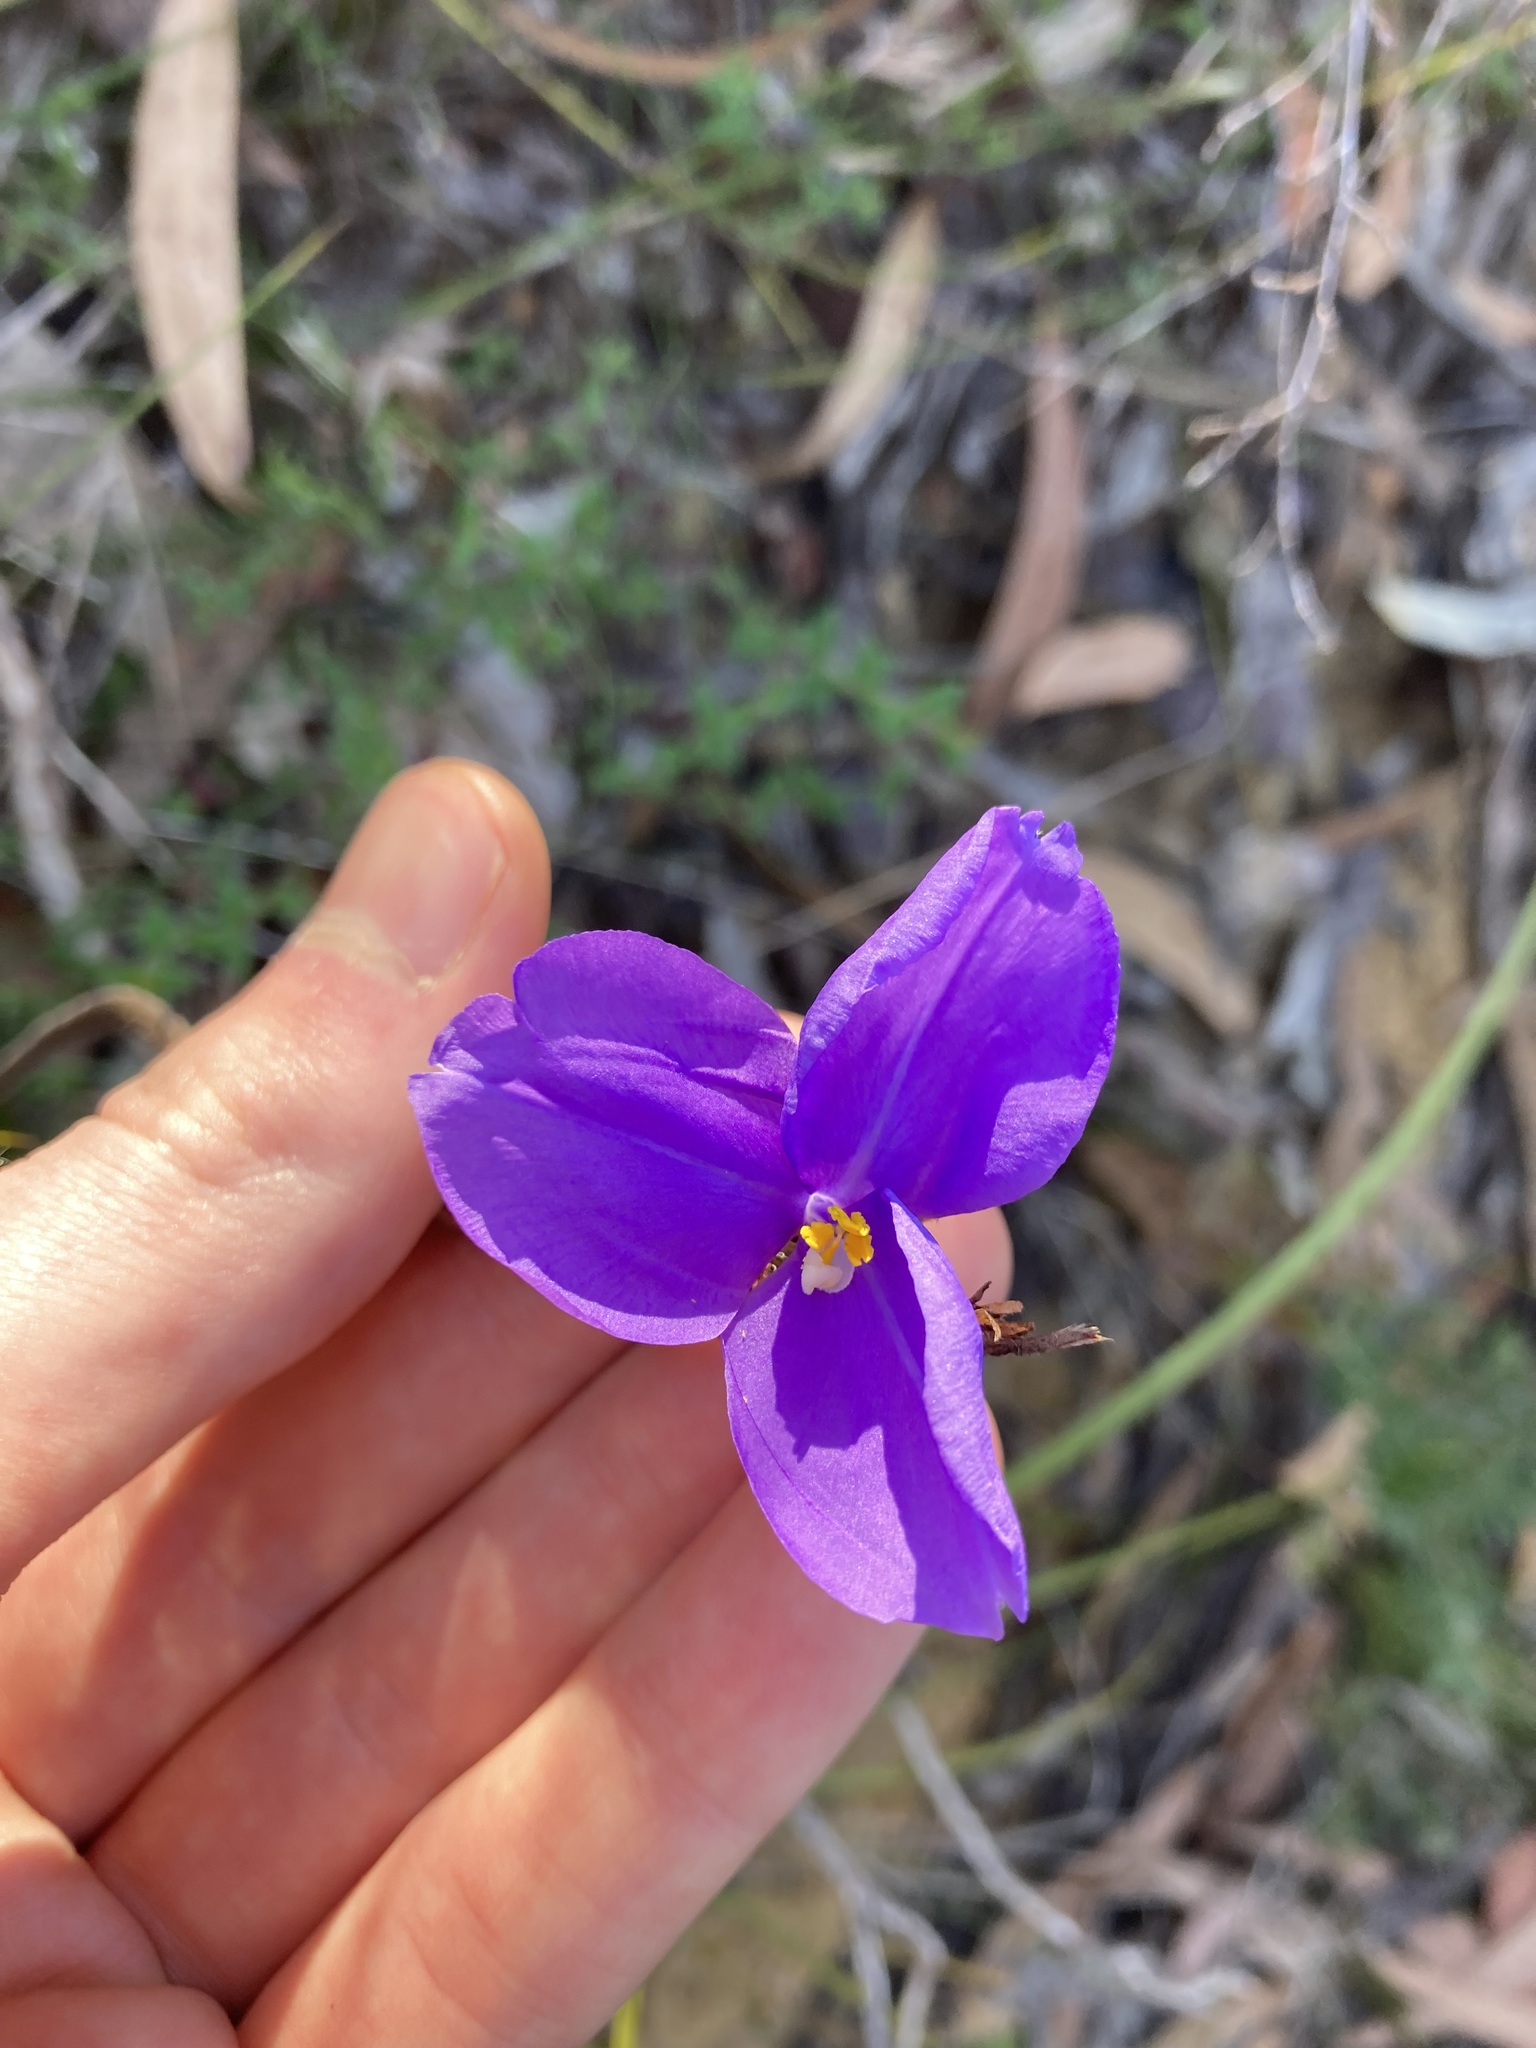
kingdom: Plantae
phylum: Tracheophyta
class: Liliopsida
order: Asparagales
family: Iridaceae
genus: Patersonia
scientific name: Patersonia sericea
